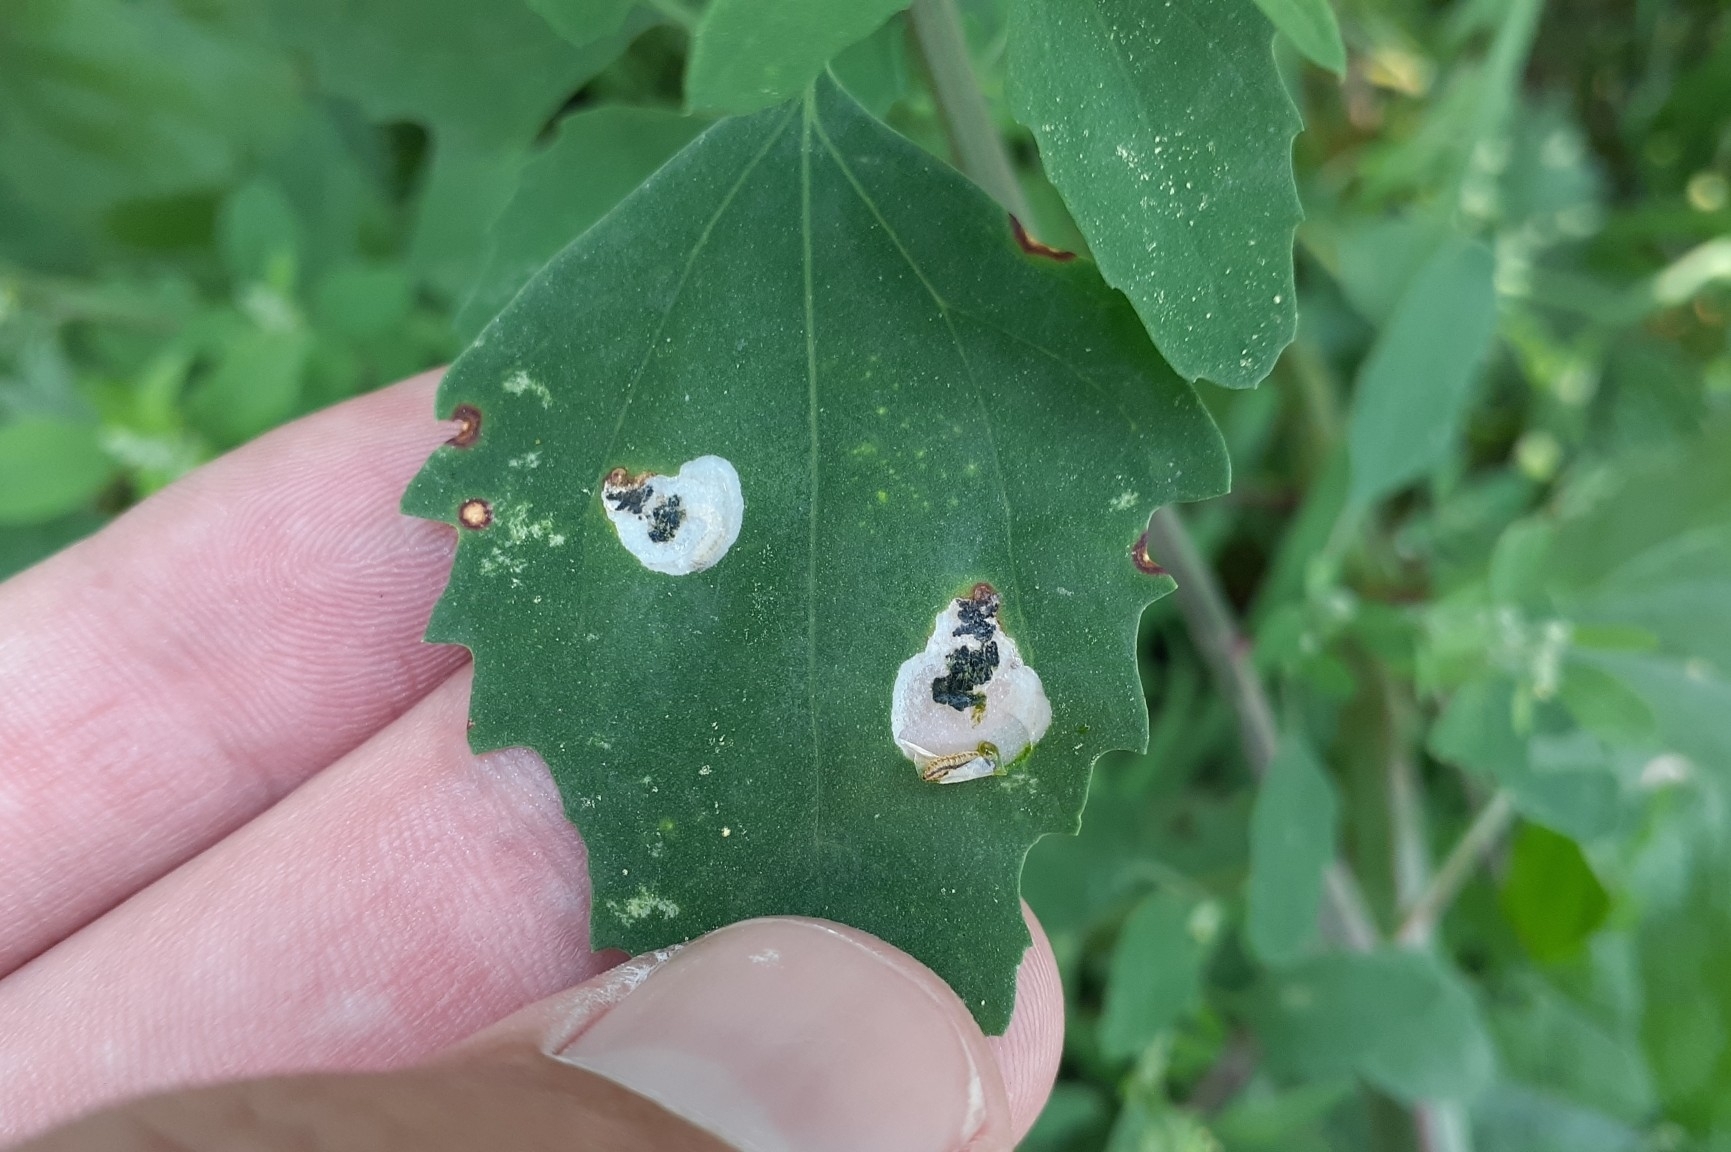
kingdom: Animalia
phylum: Arthropoda
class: Insecta
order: Lepidoptera
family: Gelechiidae
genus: Chrysoesthia
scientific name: Chrysoesthia sexguttella
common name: Moth
